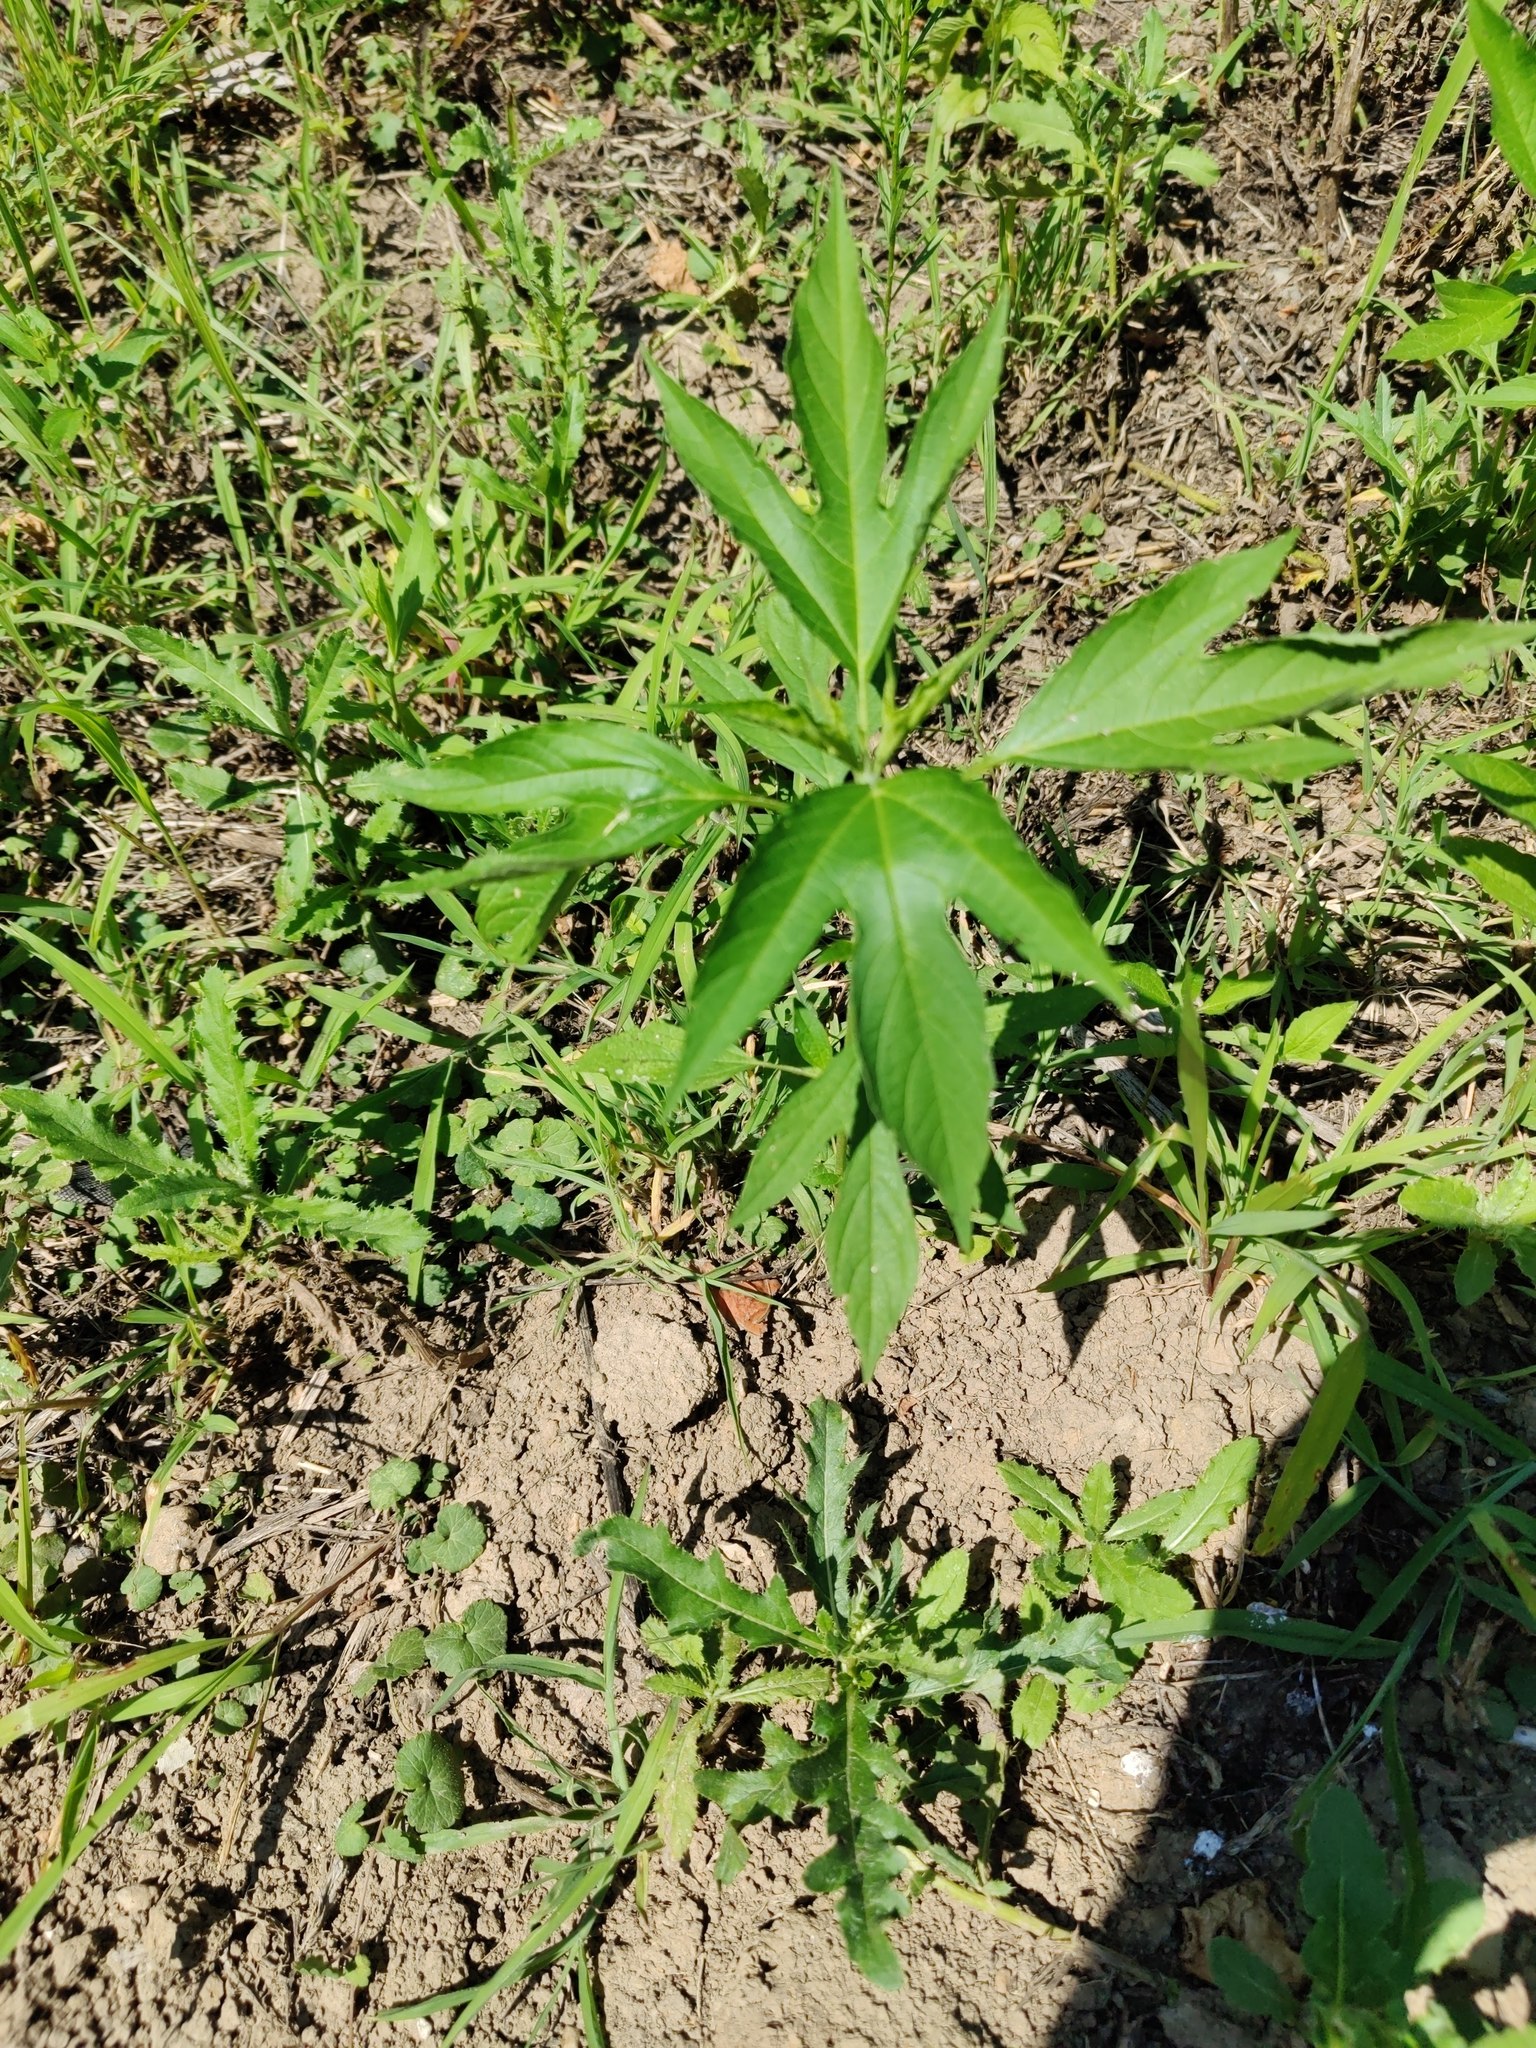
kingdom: Plantae
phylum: Tracheophyta
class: Magnoliopsida
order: Asterales
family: Asteraceae
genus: Ambrosia
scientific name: Ambrosia trifida
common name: Giant ragweed
